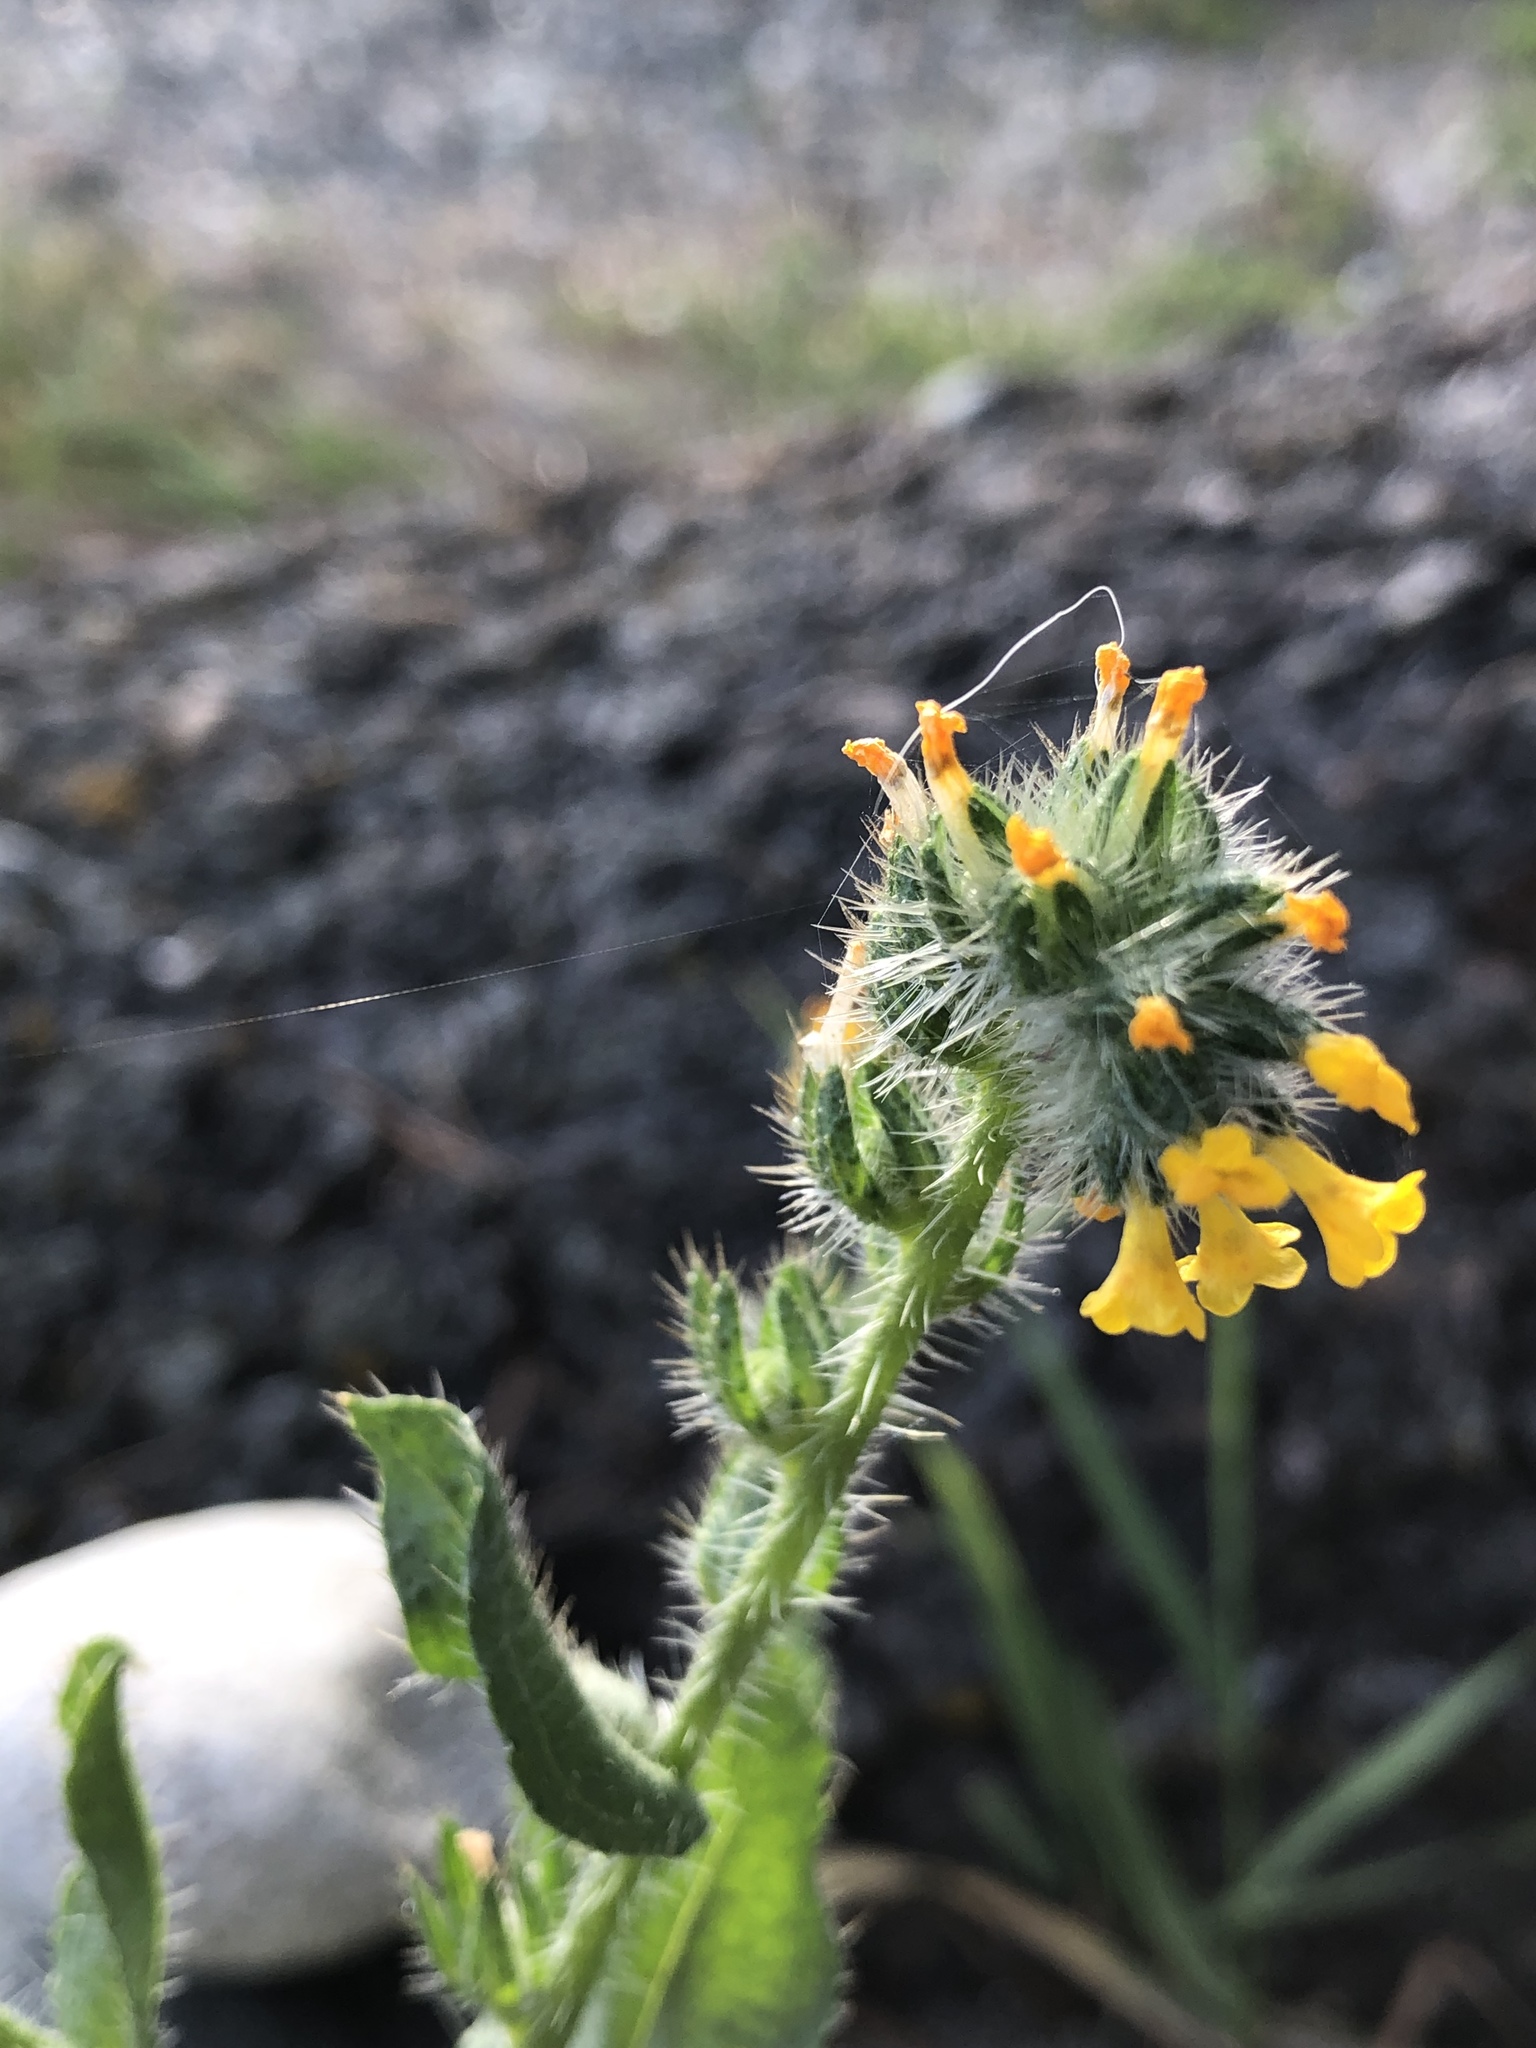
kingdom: Plantae
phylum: Tracheophyta
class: Magnoliopsida
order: Boraginales
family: Boraginaceae
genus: Amsinckia
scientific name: Amsinckia menziesii
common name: Menzies' fiddleneck
